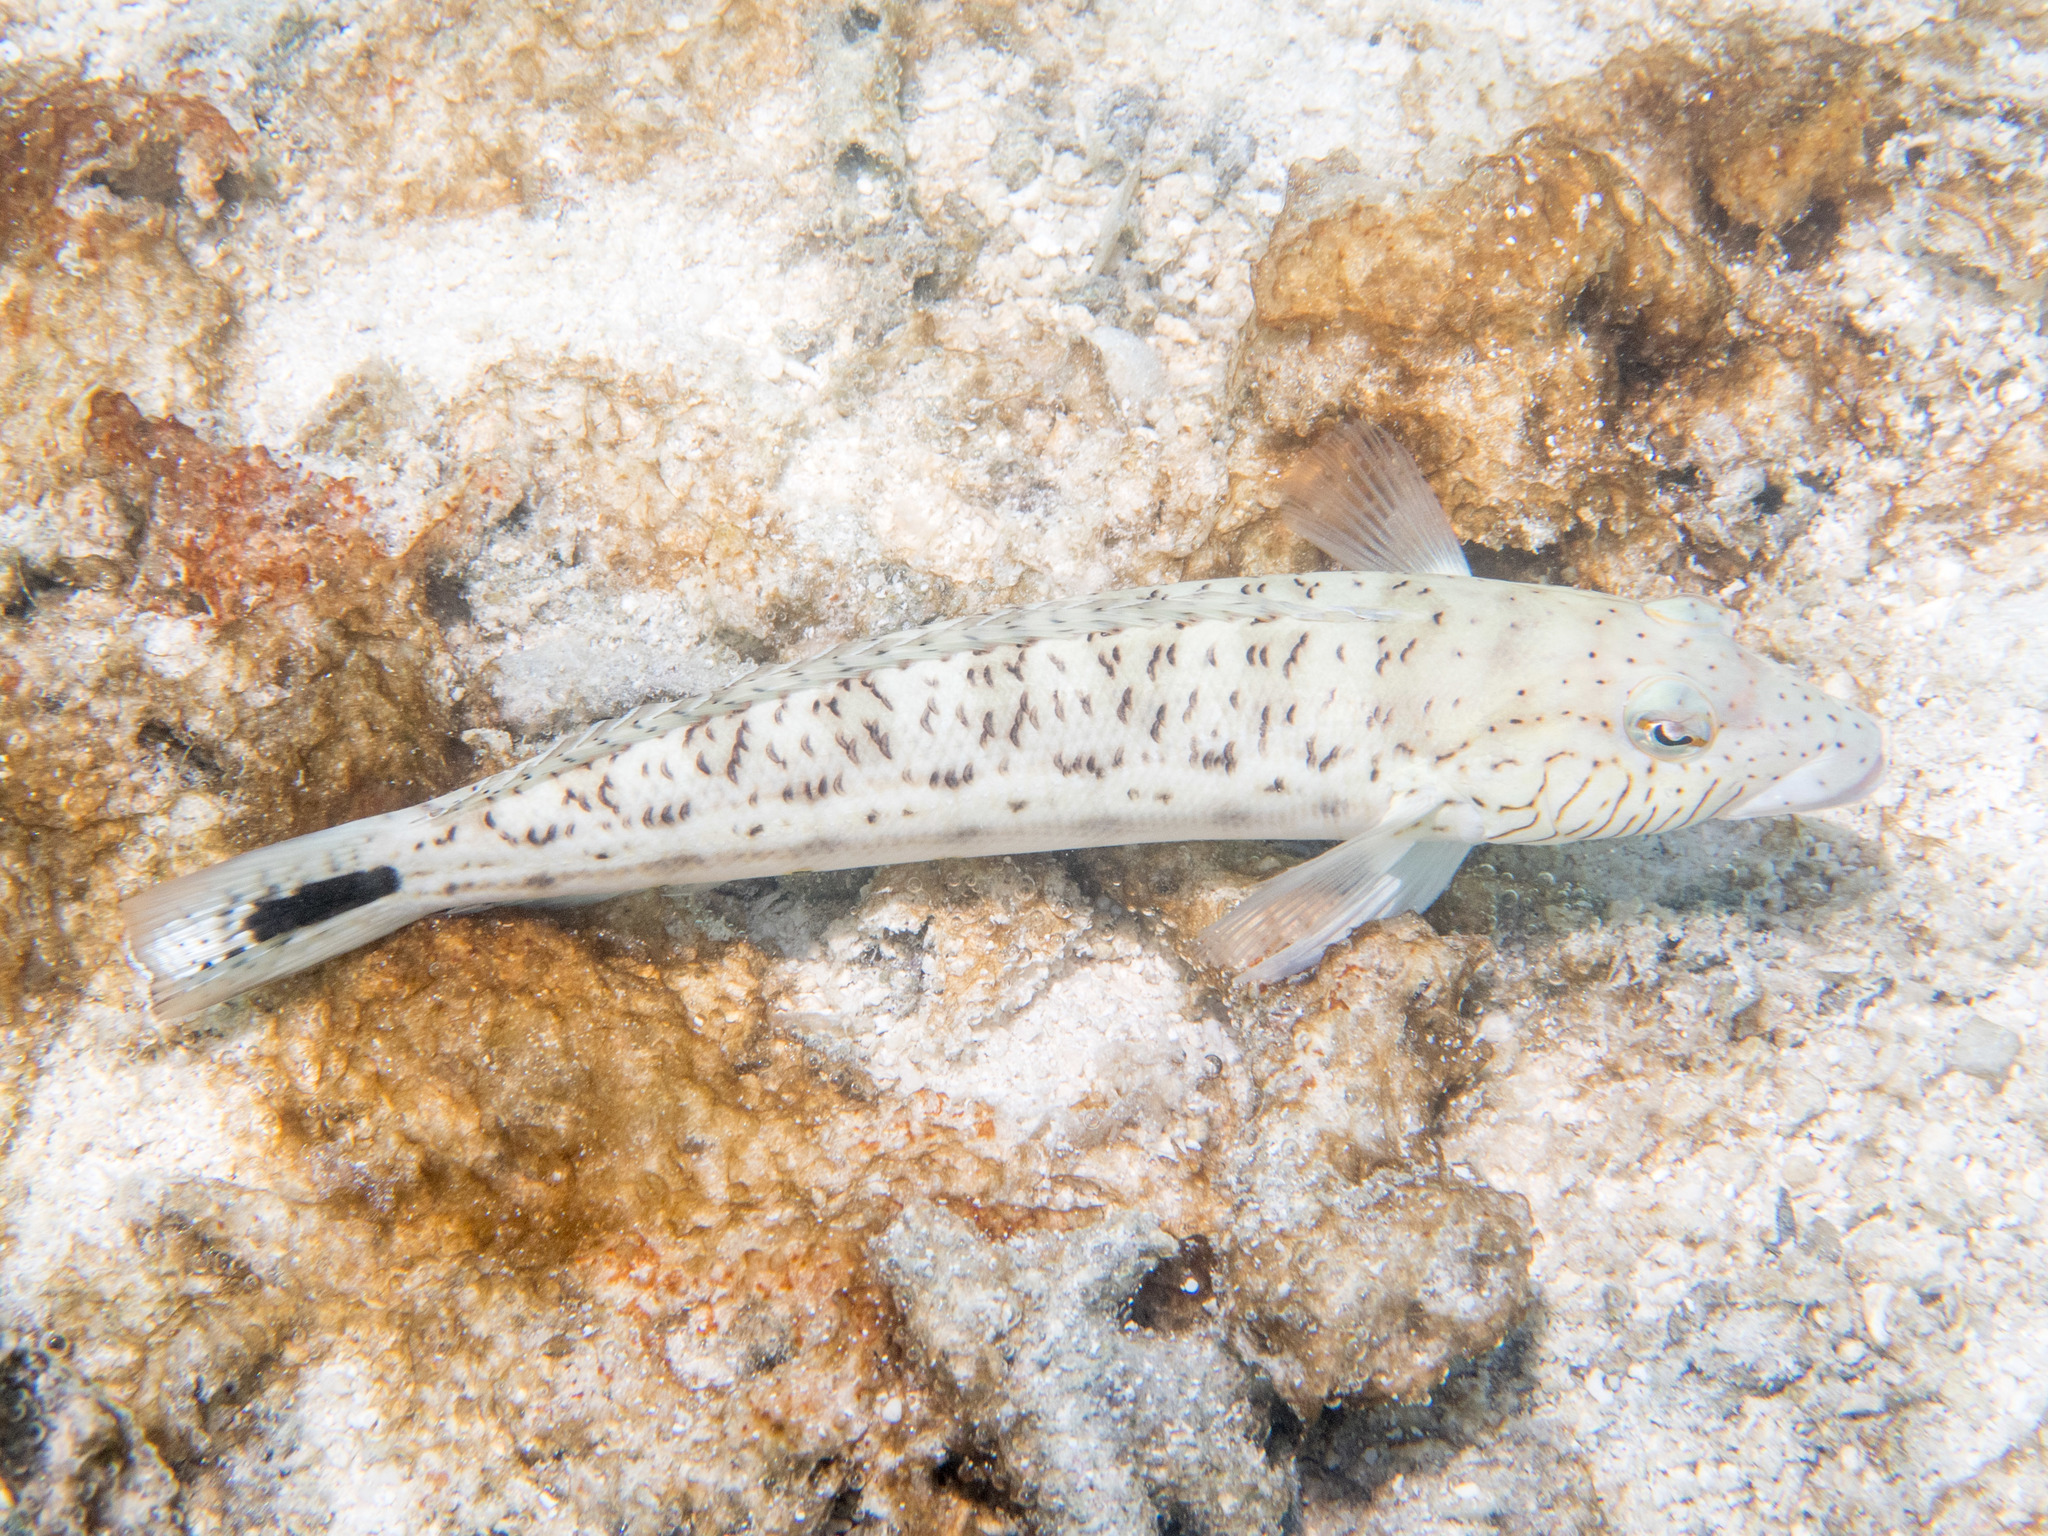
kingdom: Animalia
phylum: Chordata
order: Perciformes
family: Pinguipedidae
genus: Parapercis
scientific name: Parapercis hexophtalma
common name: Speckled sandperch
